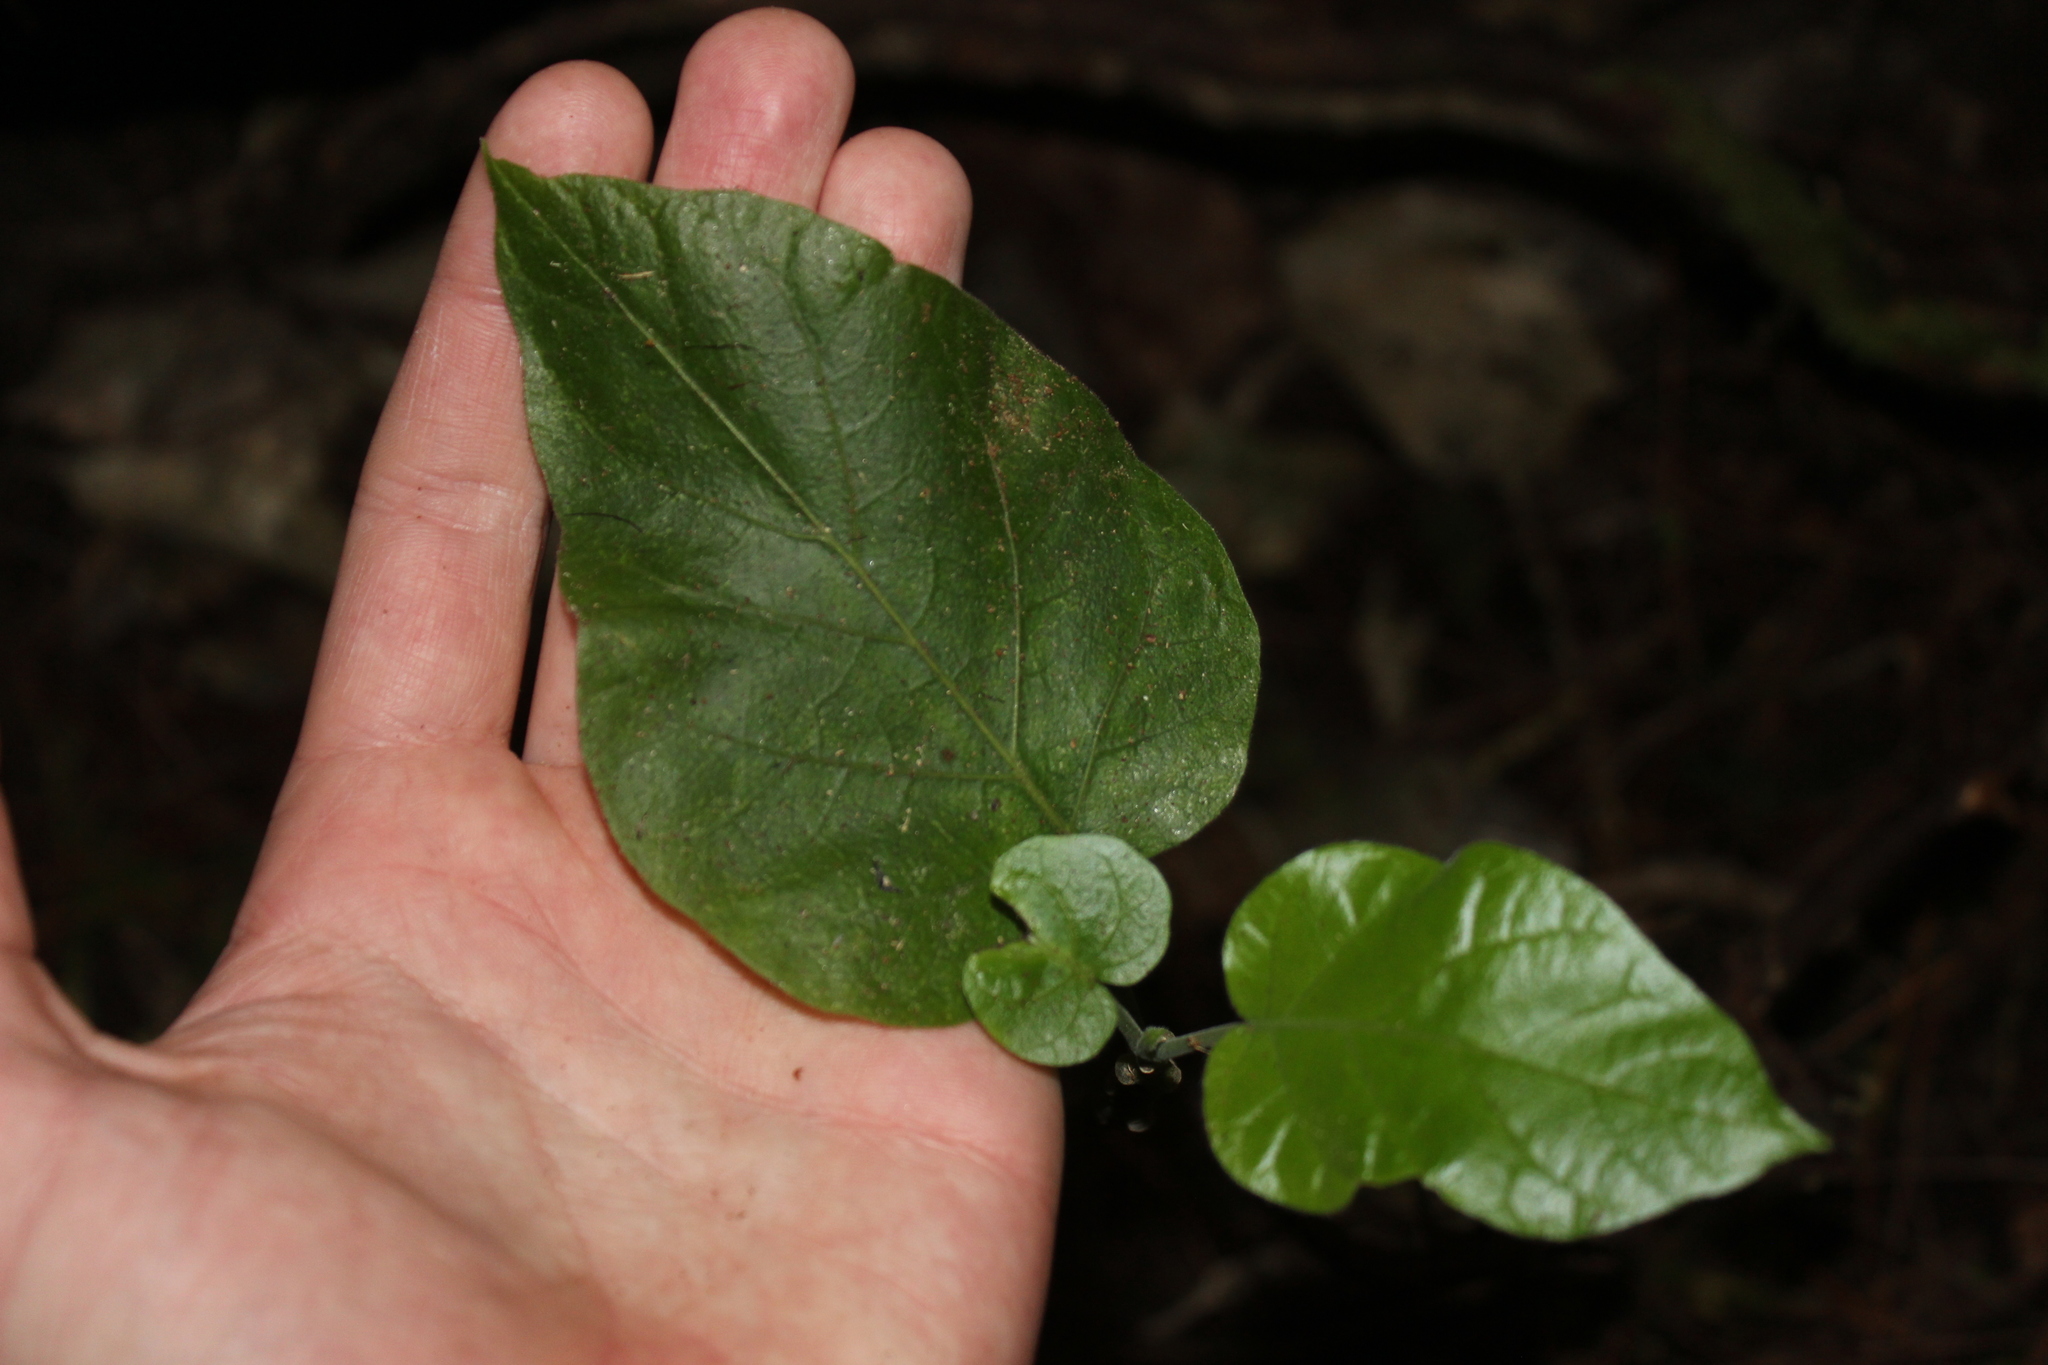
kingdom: Plantae
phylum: Tracheophyta
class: Magnoliopsida
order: Solanales
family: Solanaceae
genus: Solanum
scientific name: Solanum betaceum
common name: Tamarillo
